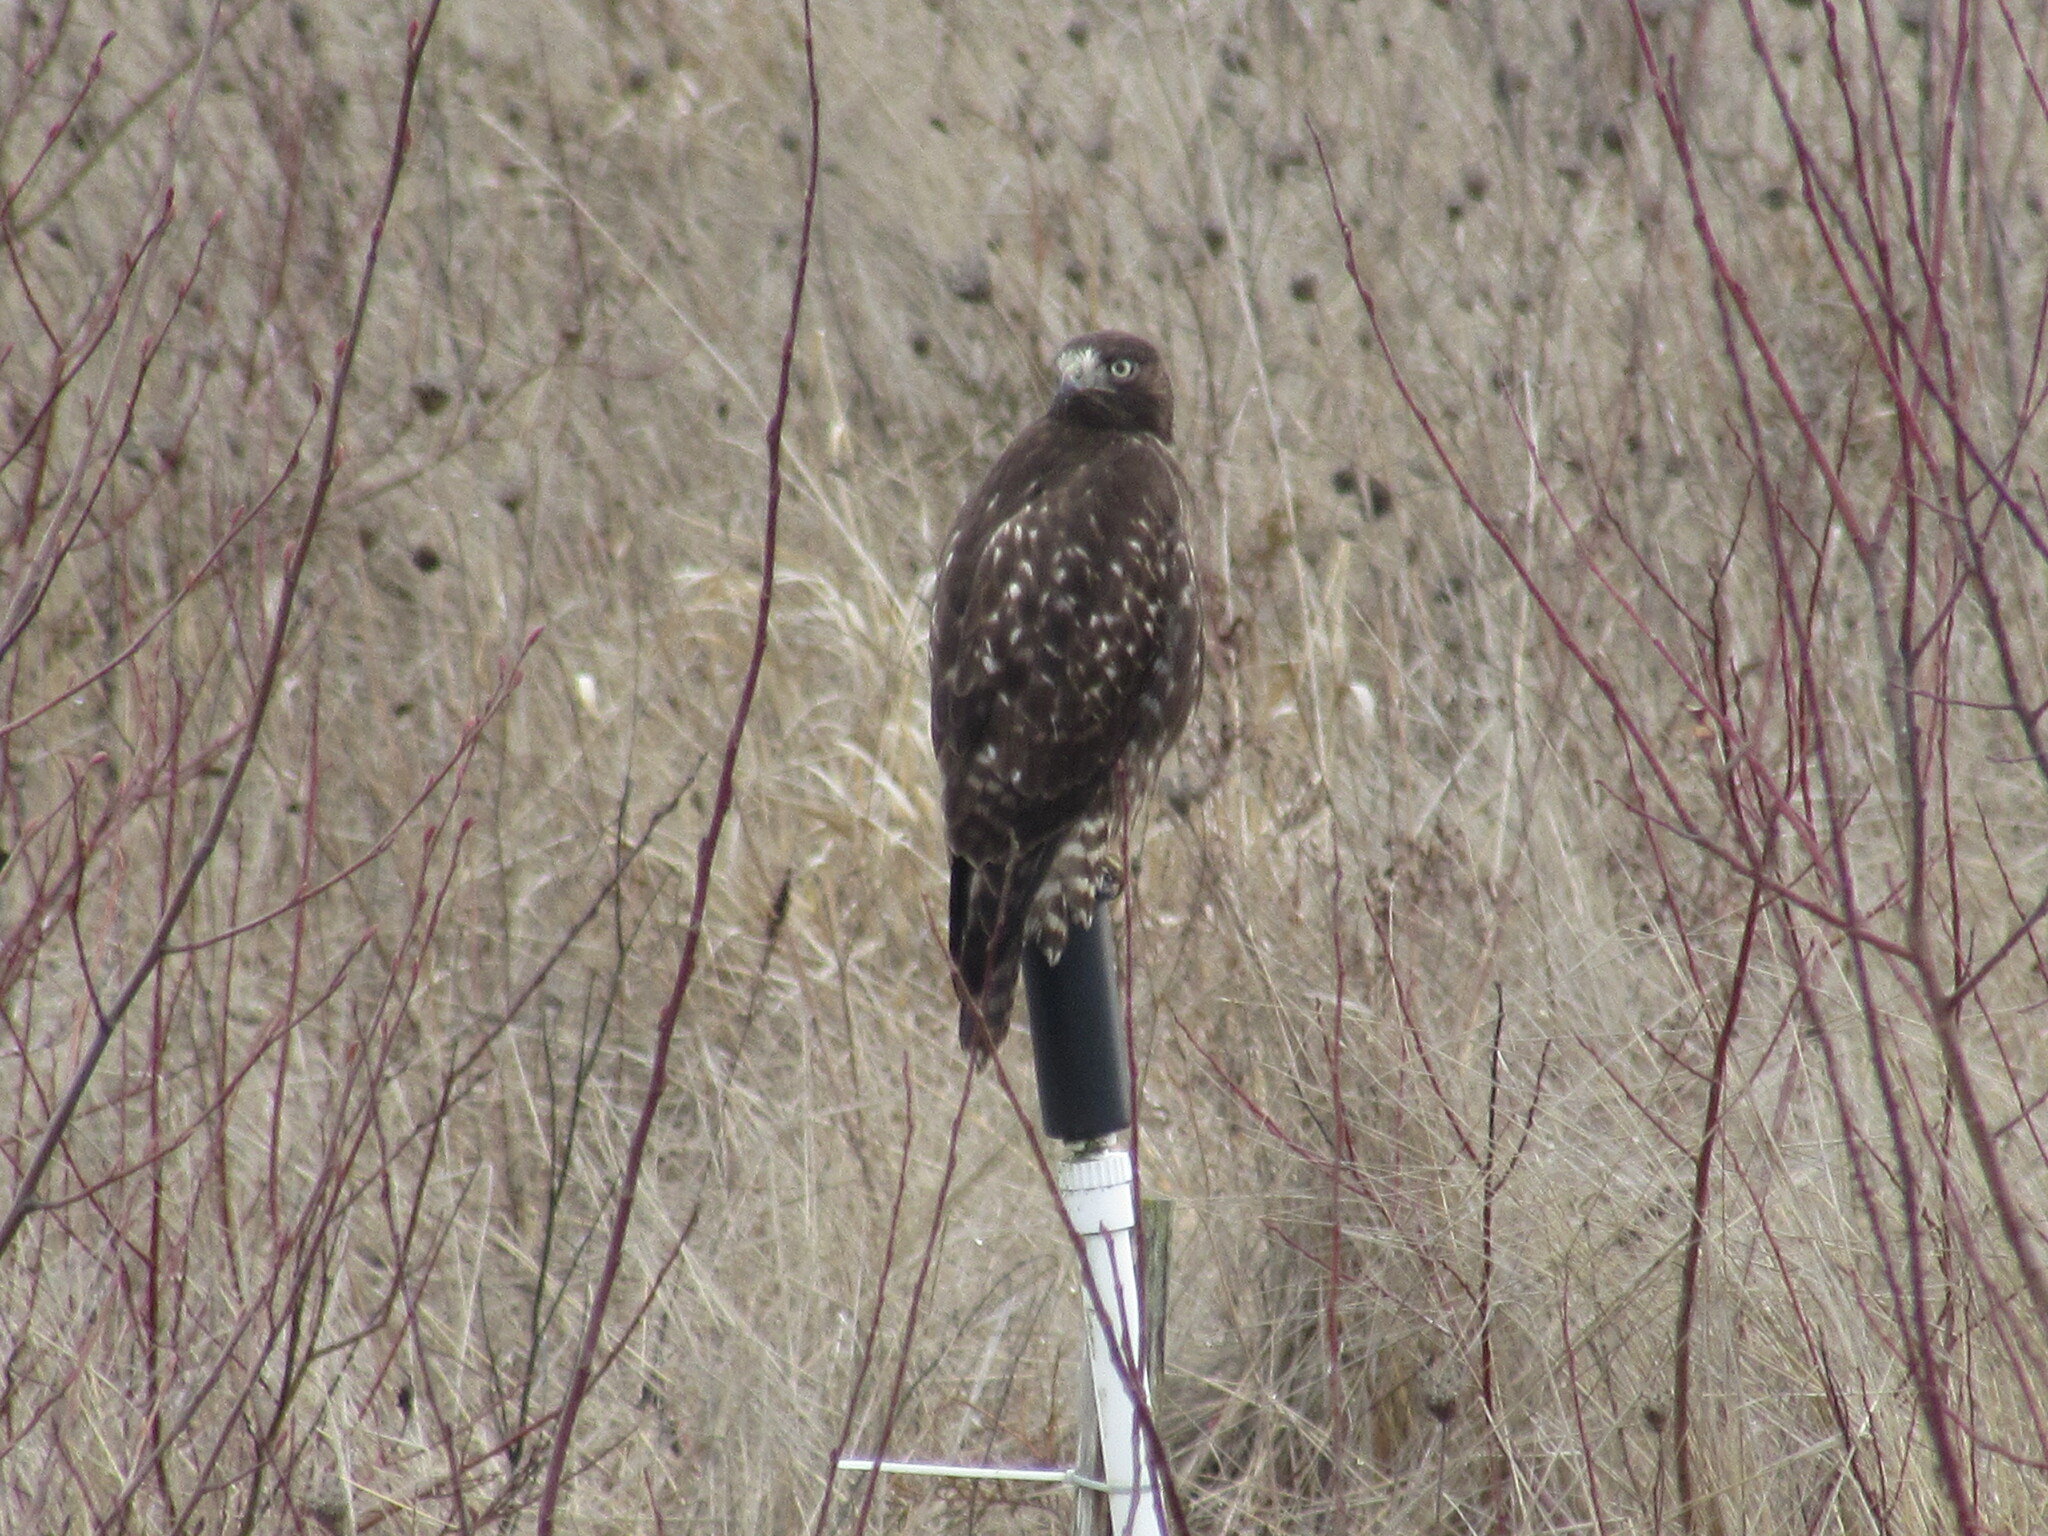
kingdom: Animalia
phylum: Chordata
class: Aves
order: Accipitriformes
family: Accipitridae
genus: Buteo
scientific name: Buteo jamaicensis
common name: Red-tailed hawk
